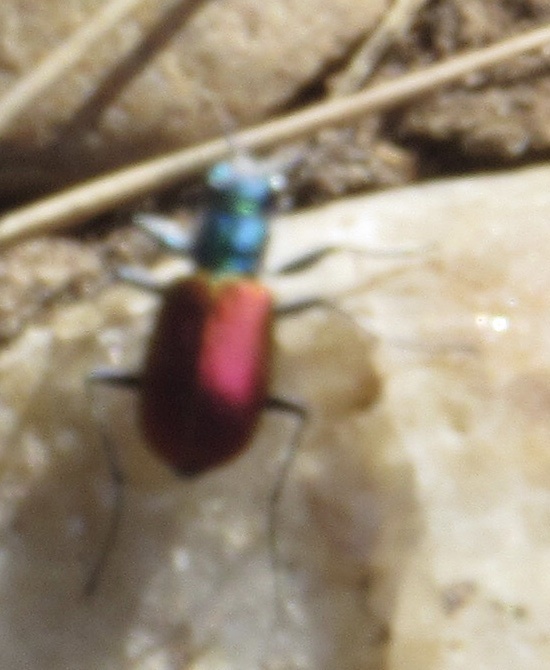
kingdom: Animalia
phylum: Arthropoda
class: Insecta
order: Coleoptera
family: Carabidae
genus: Cicindela
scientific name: Cicindela scutellaris
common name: Festive tiger beetle
